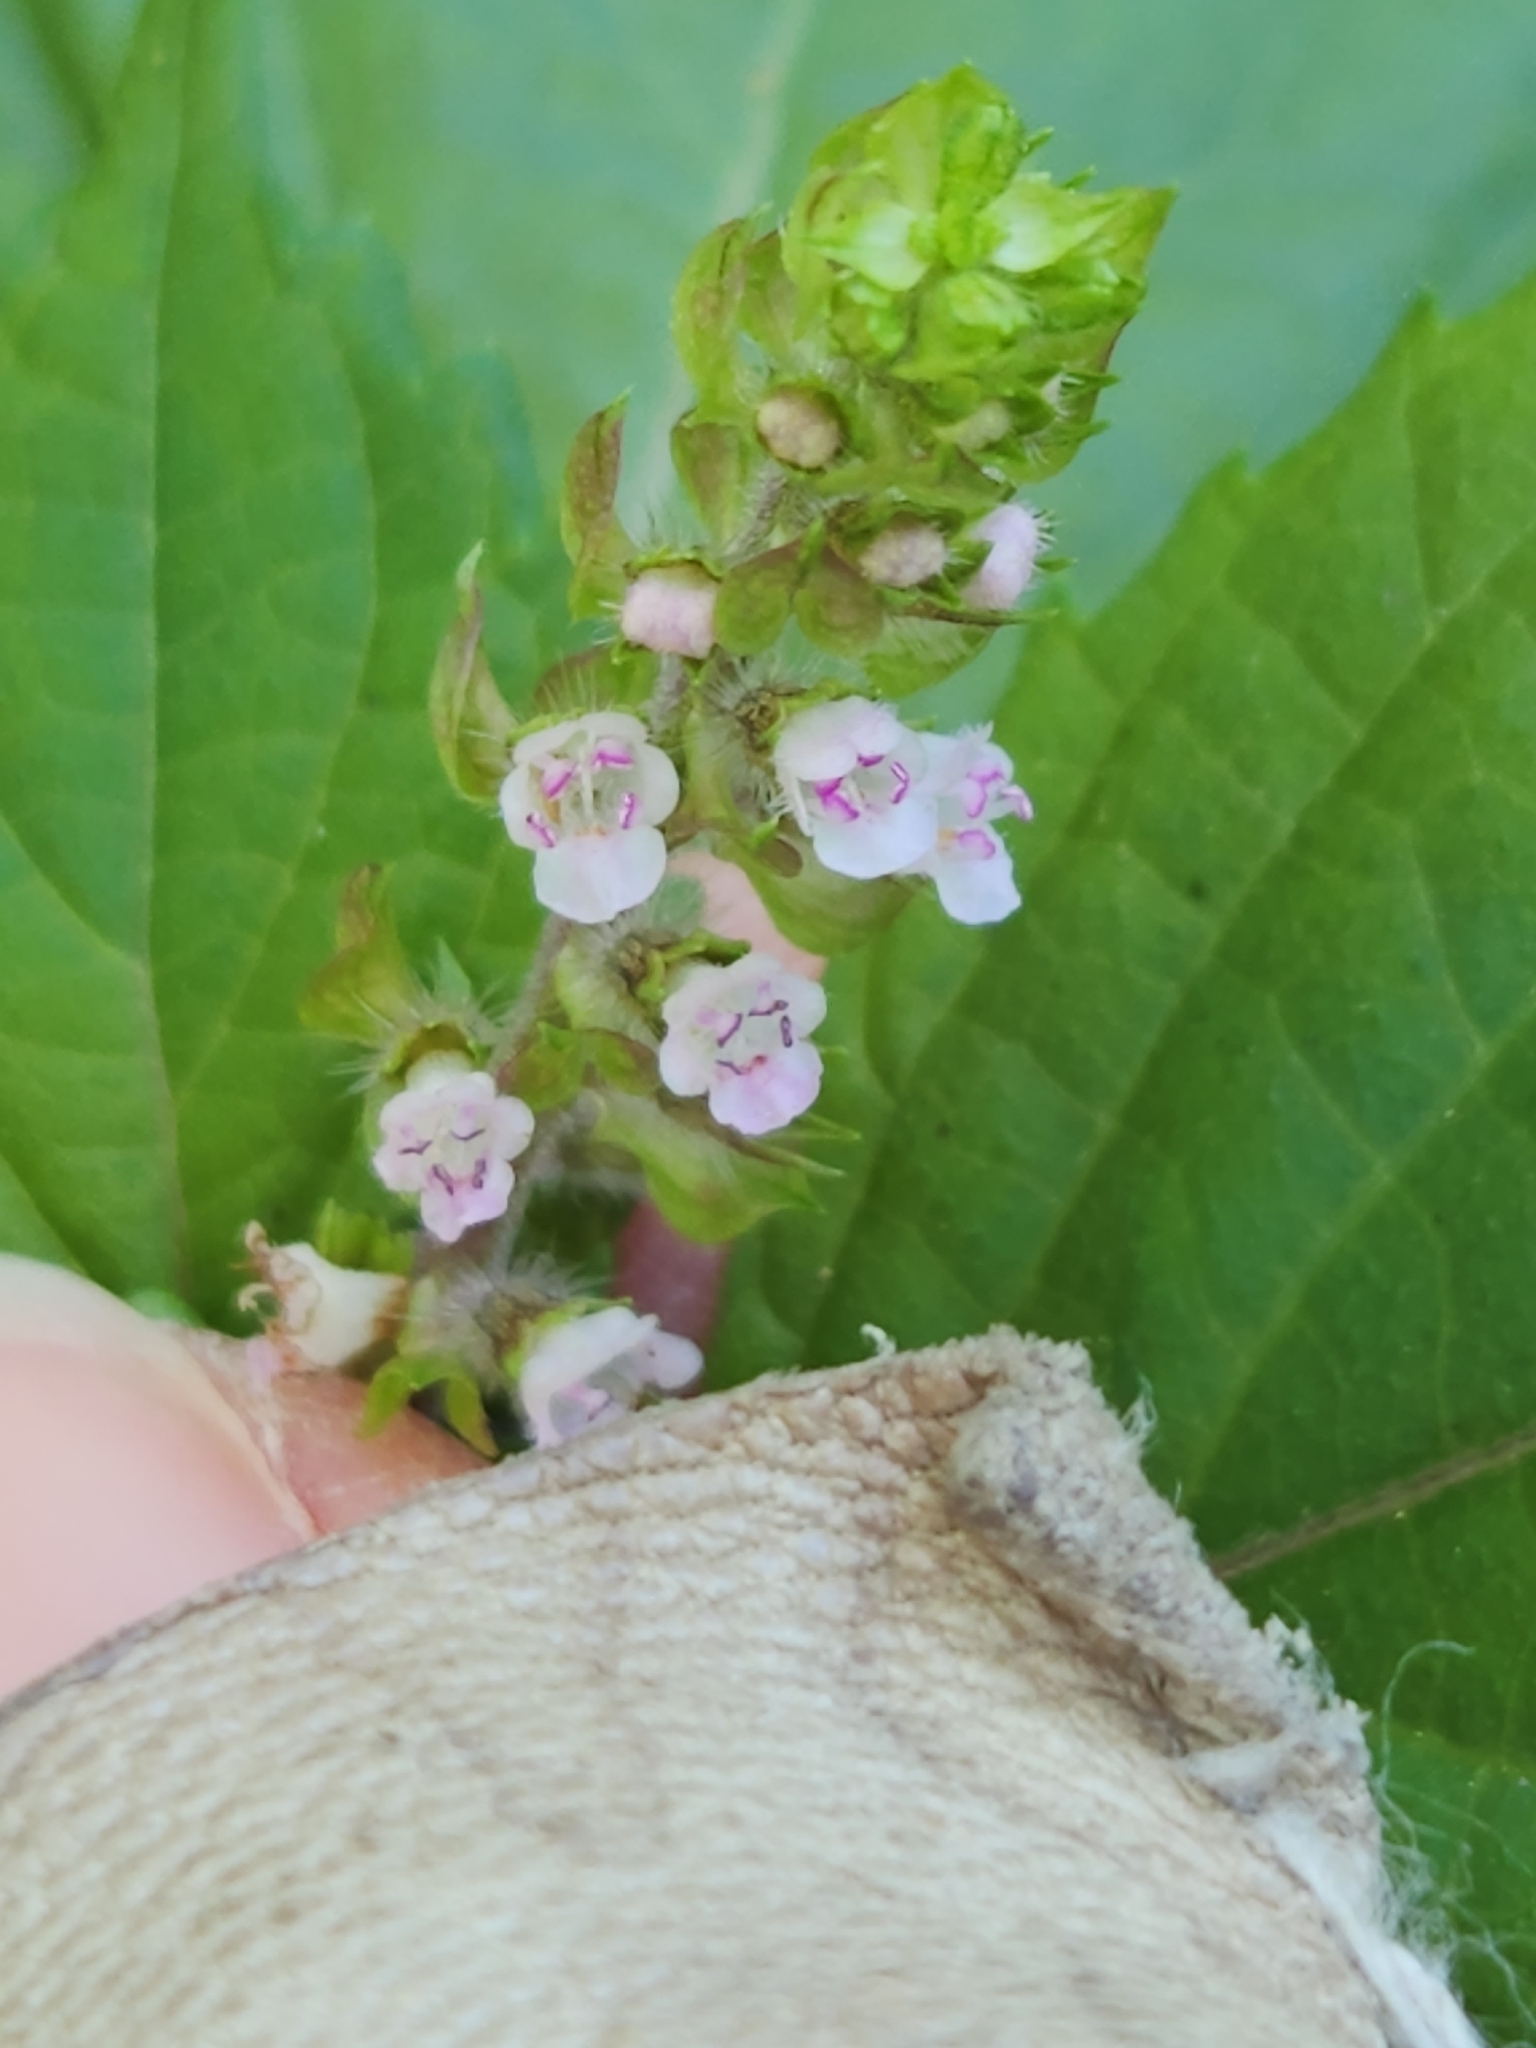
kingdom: Plantae
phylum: Tracheophyta
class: Magnoliopsida
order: Lamiales
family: Lamiaceae
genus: Perilla
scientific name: Perilla frutescens
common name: Perilla
